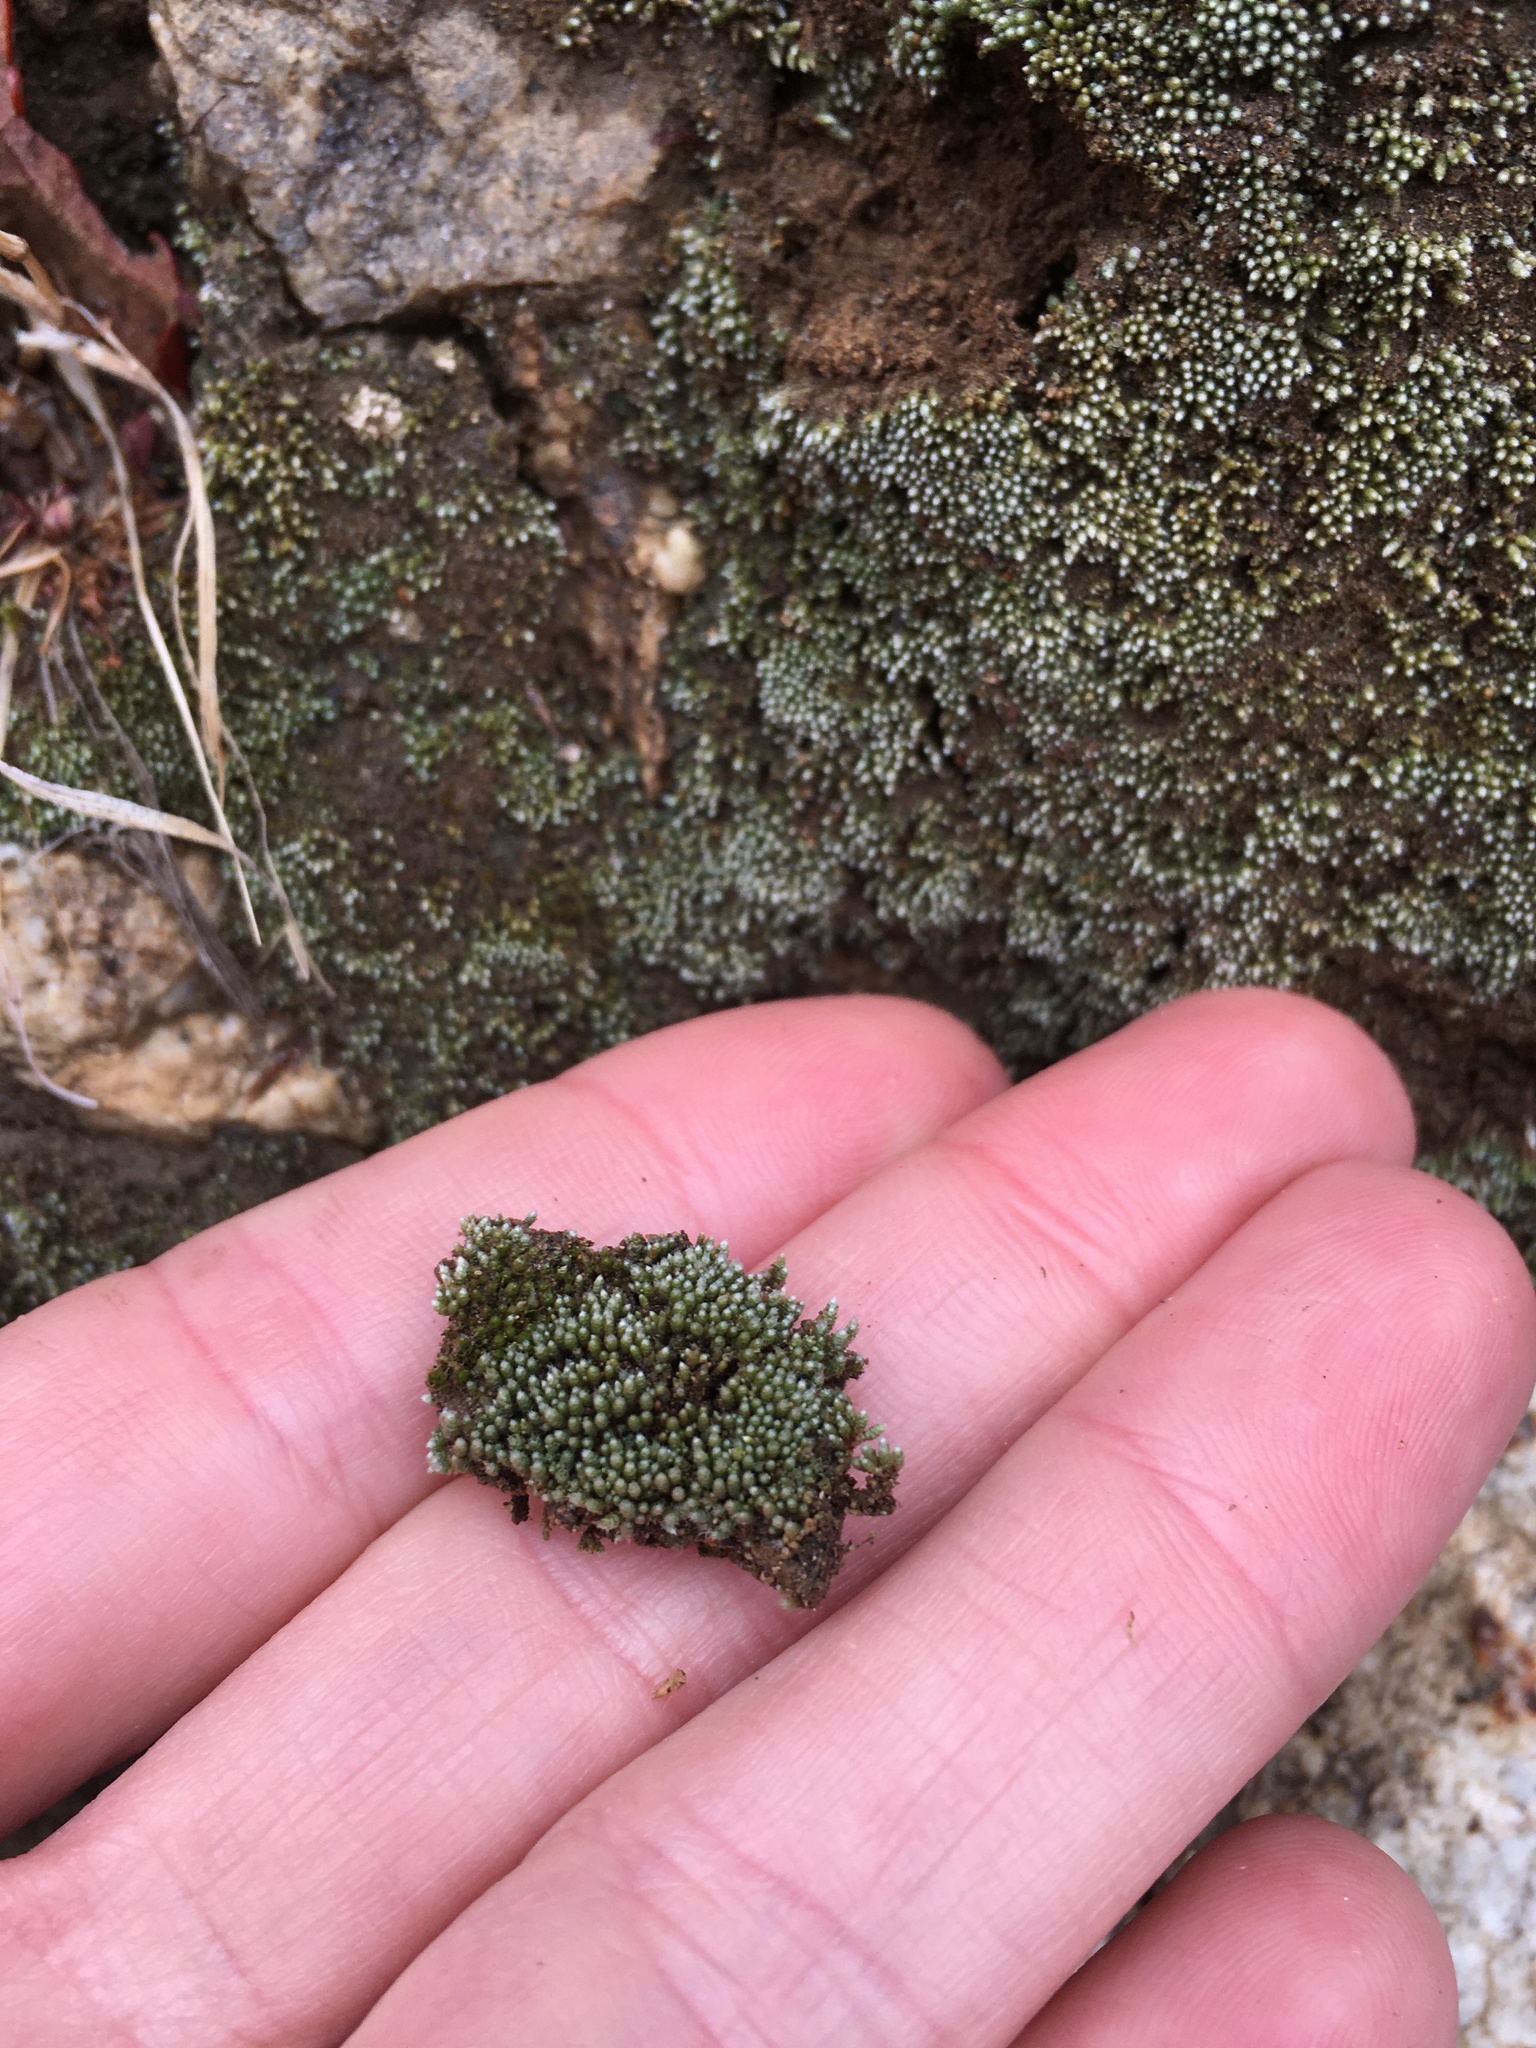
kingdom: Plantae
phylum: Bryophyta
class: Bryopsida
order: Bryales
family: Bryaceae
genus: Bryum
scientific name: Bryum argenteum
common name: Silver-moss
